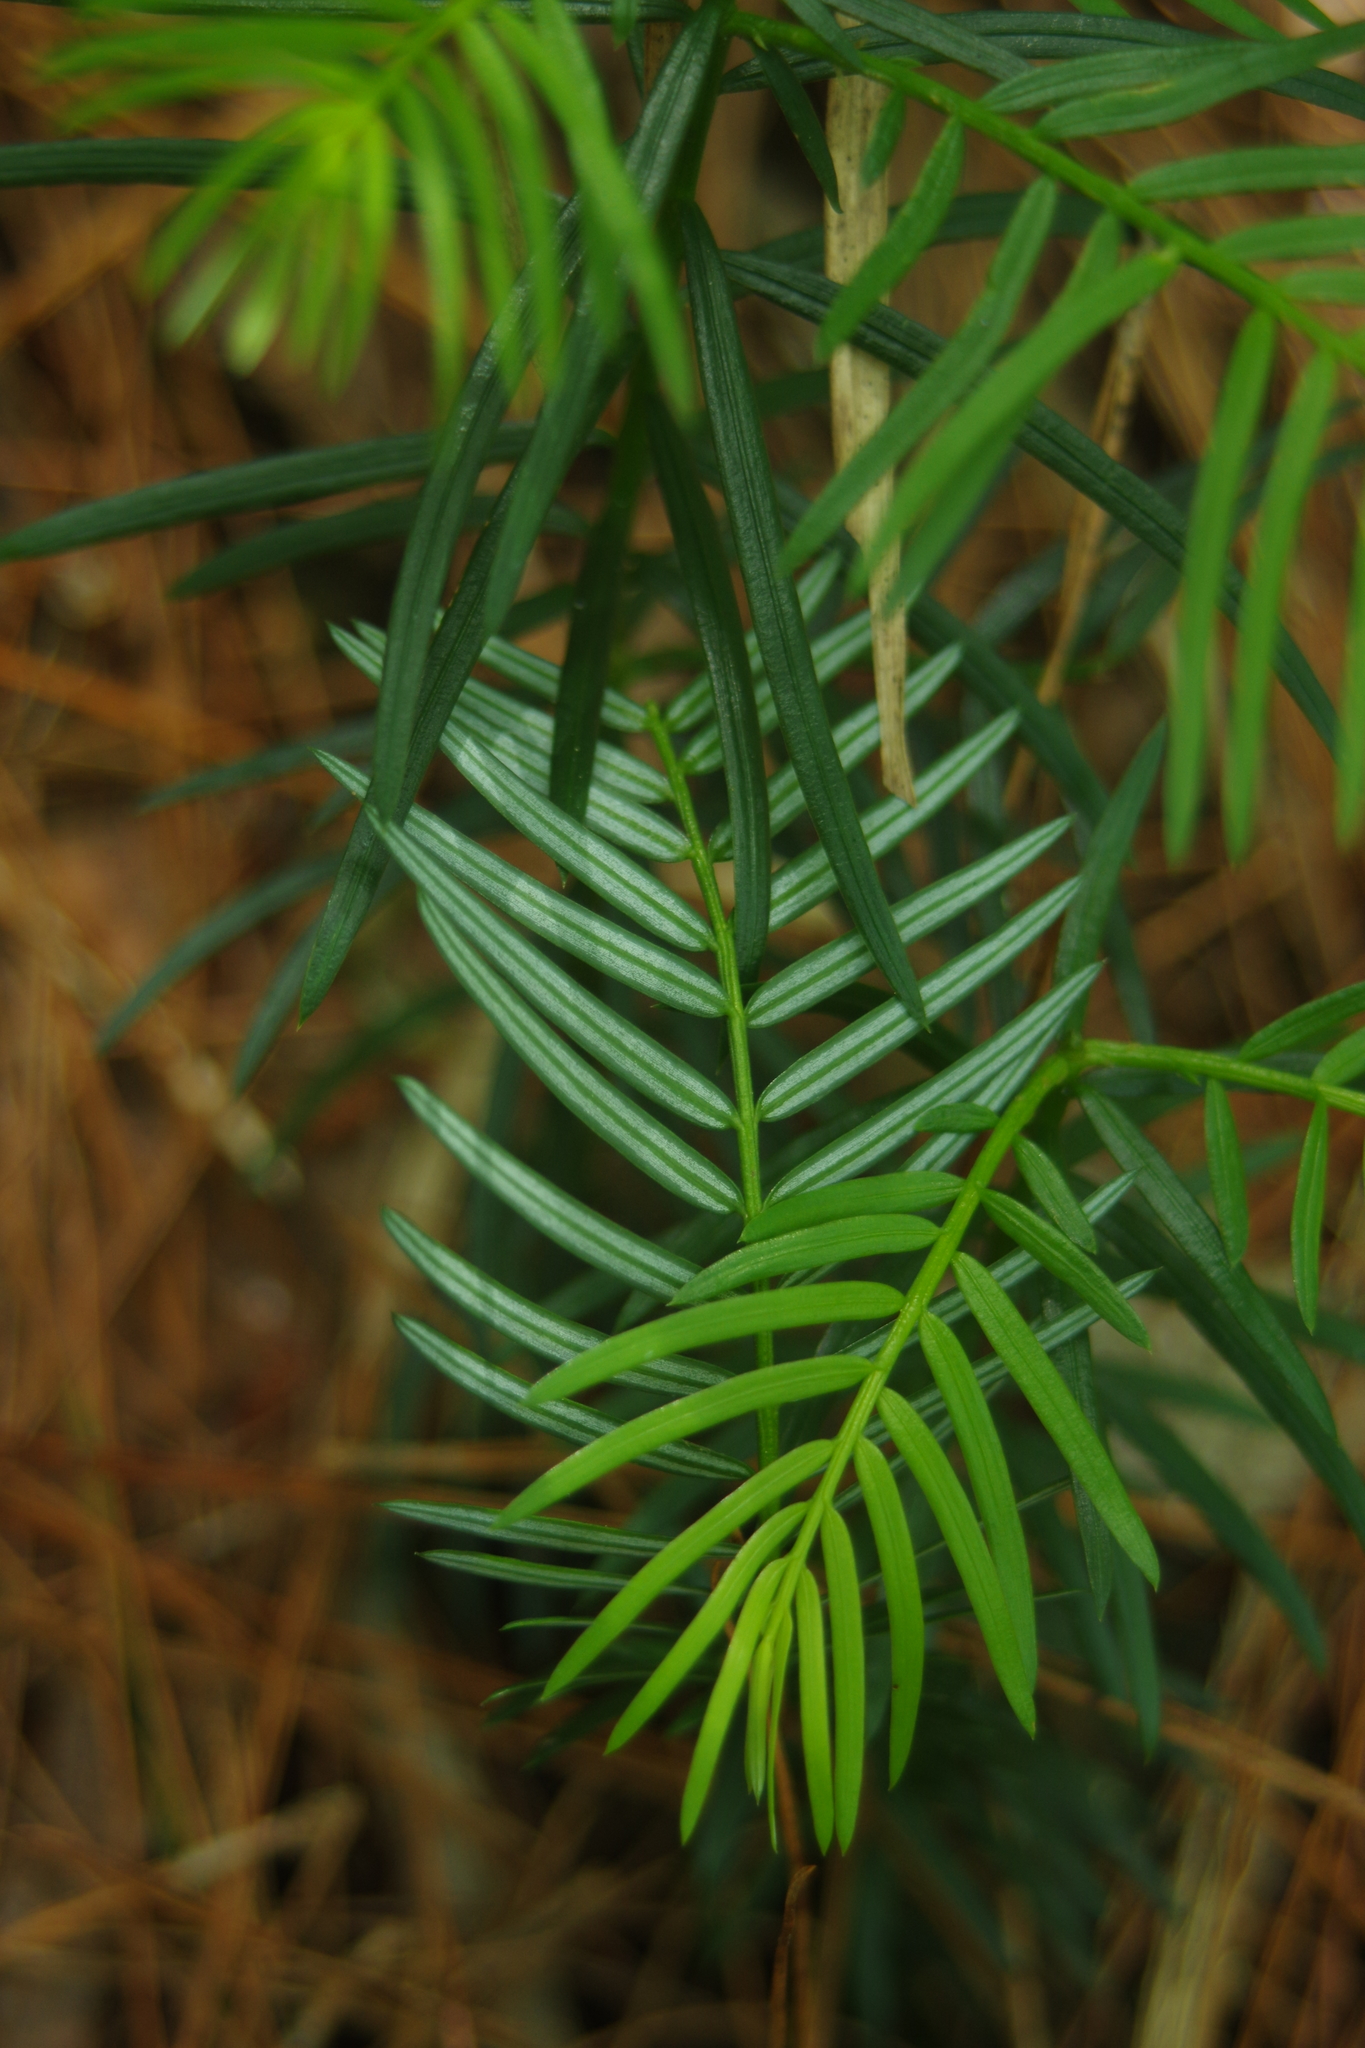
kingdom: Plantae
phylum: Tracheophyta
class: Pinopsida
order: Pinales
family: Cephalotaxaceae
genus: Cephalotaxus
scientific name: Cephalotaxus harringtonii
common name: Harrington's plum yew
